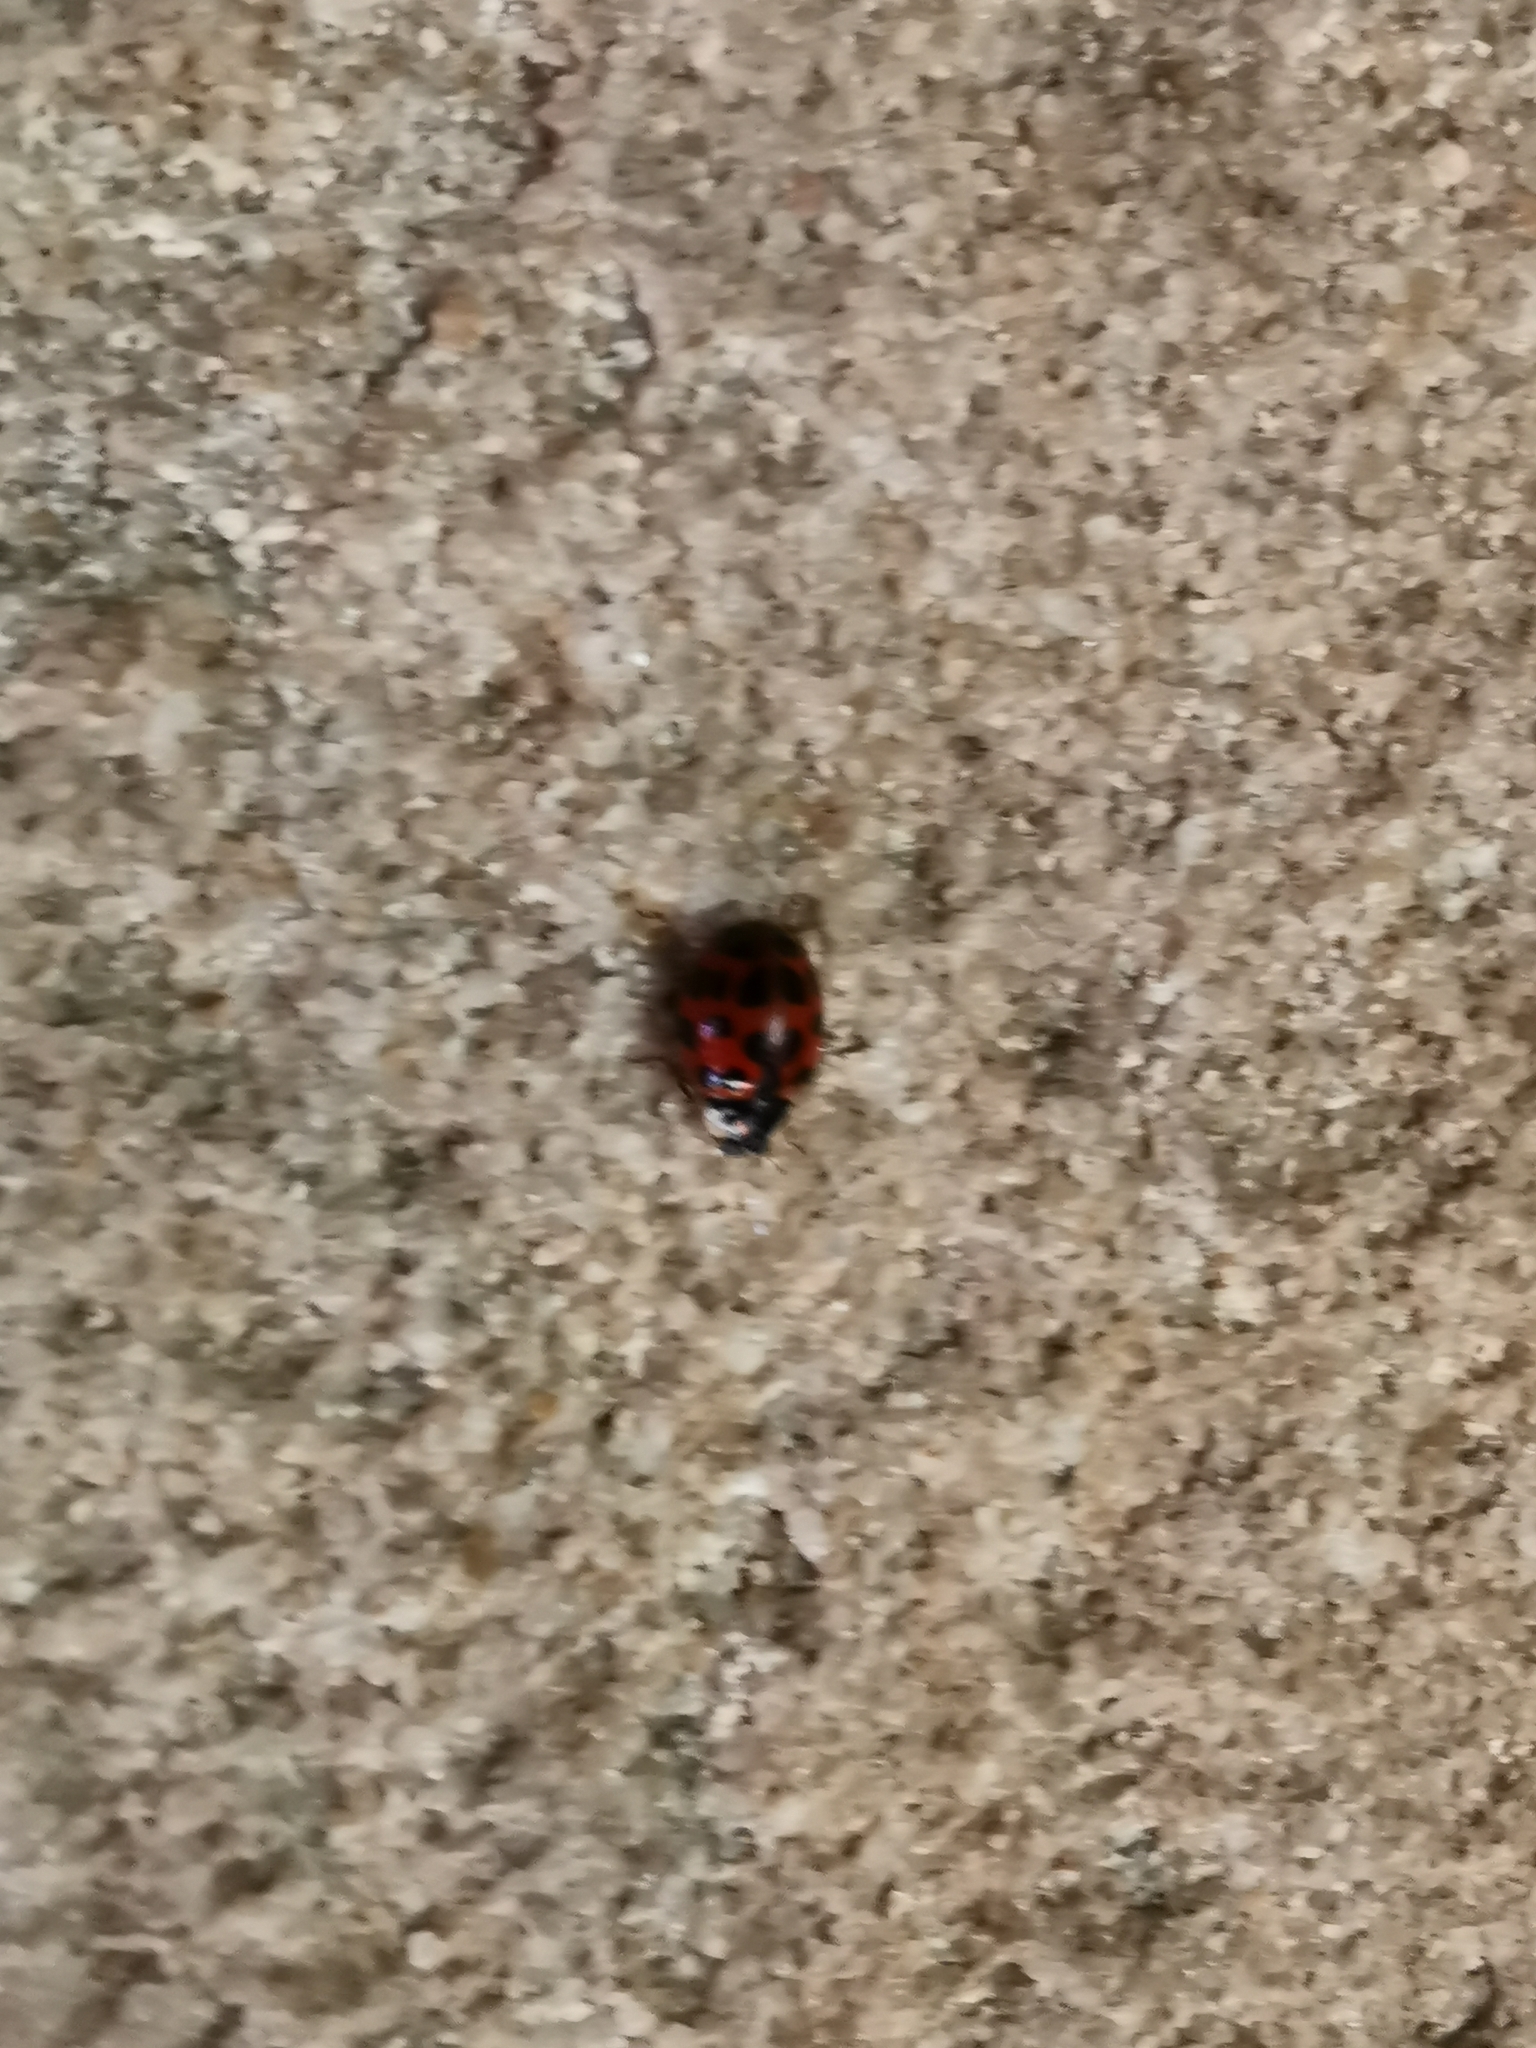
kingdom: Animalia
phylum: Arthropoda
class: Insecta
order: Coleoptera
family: Coccinellidae
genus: Harmonia
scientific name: Harmonia axyridis
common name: Harlequin ladybird
